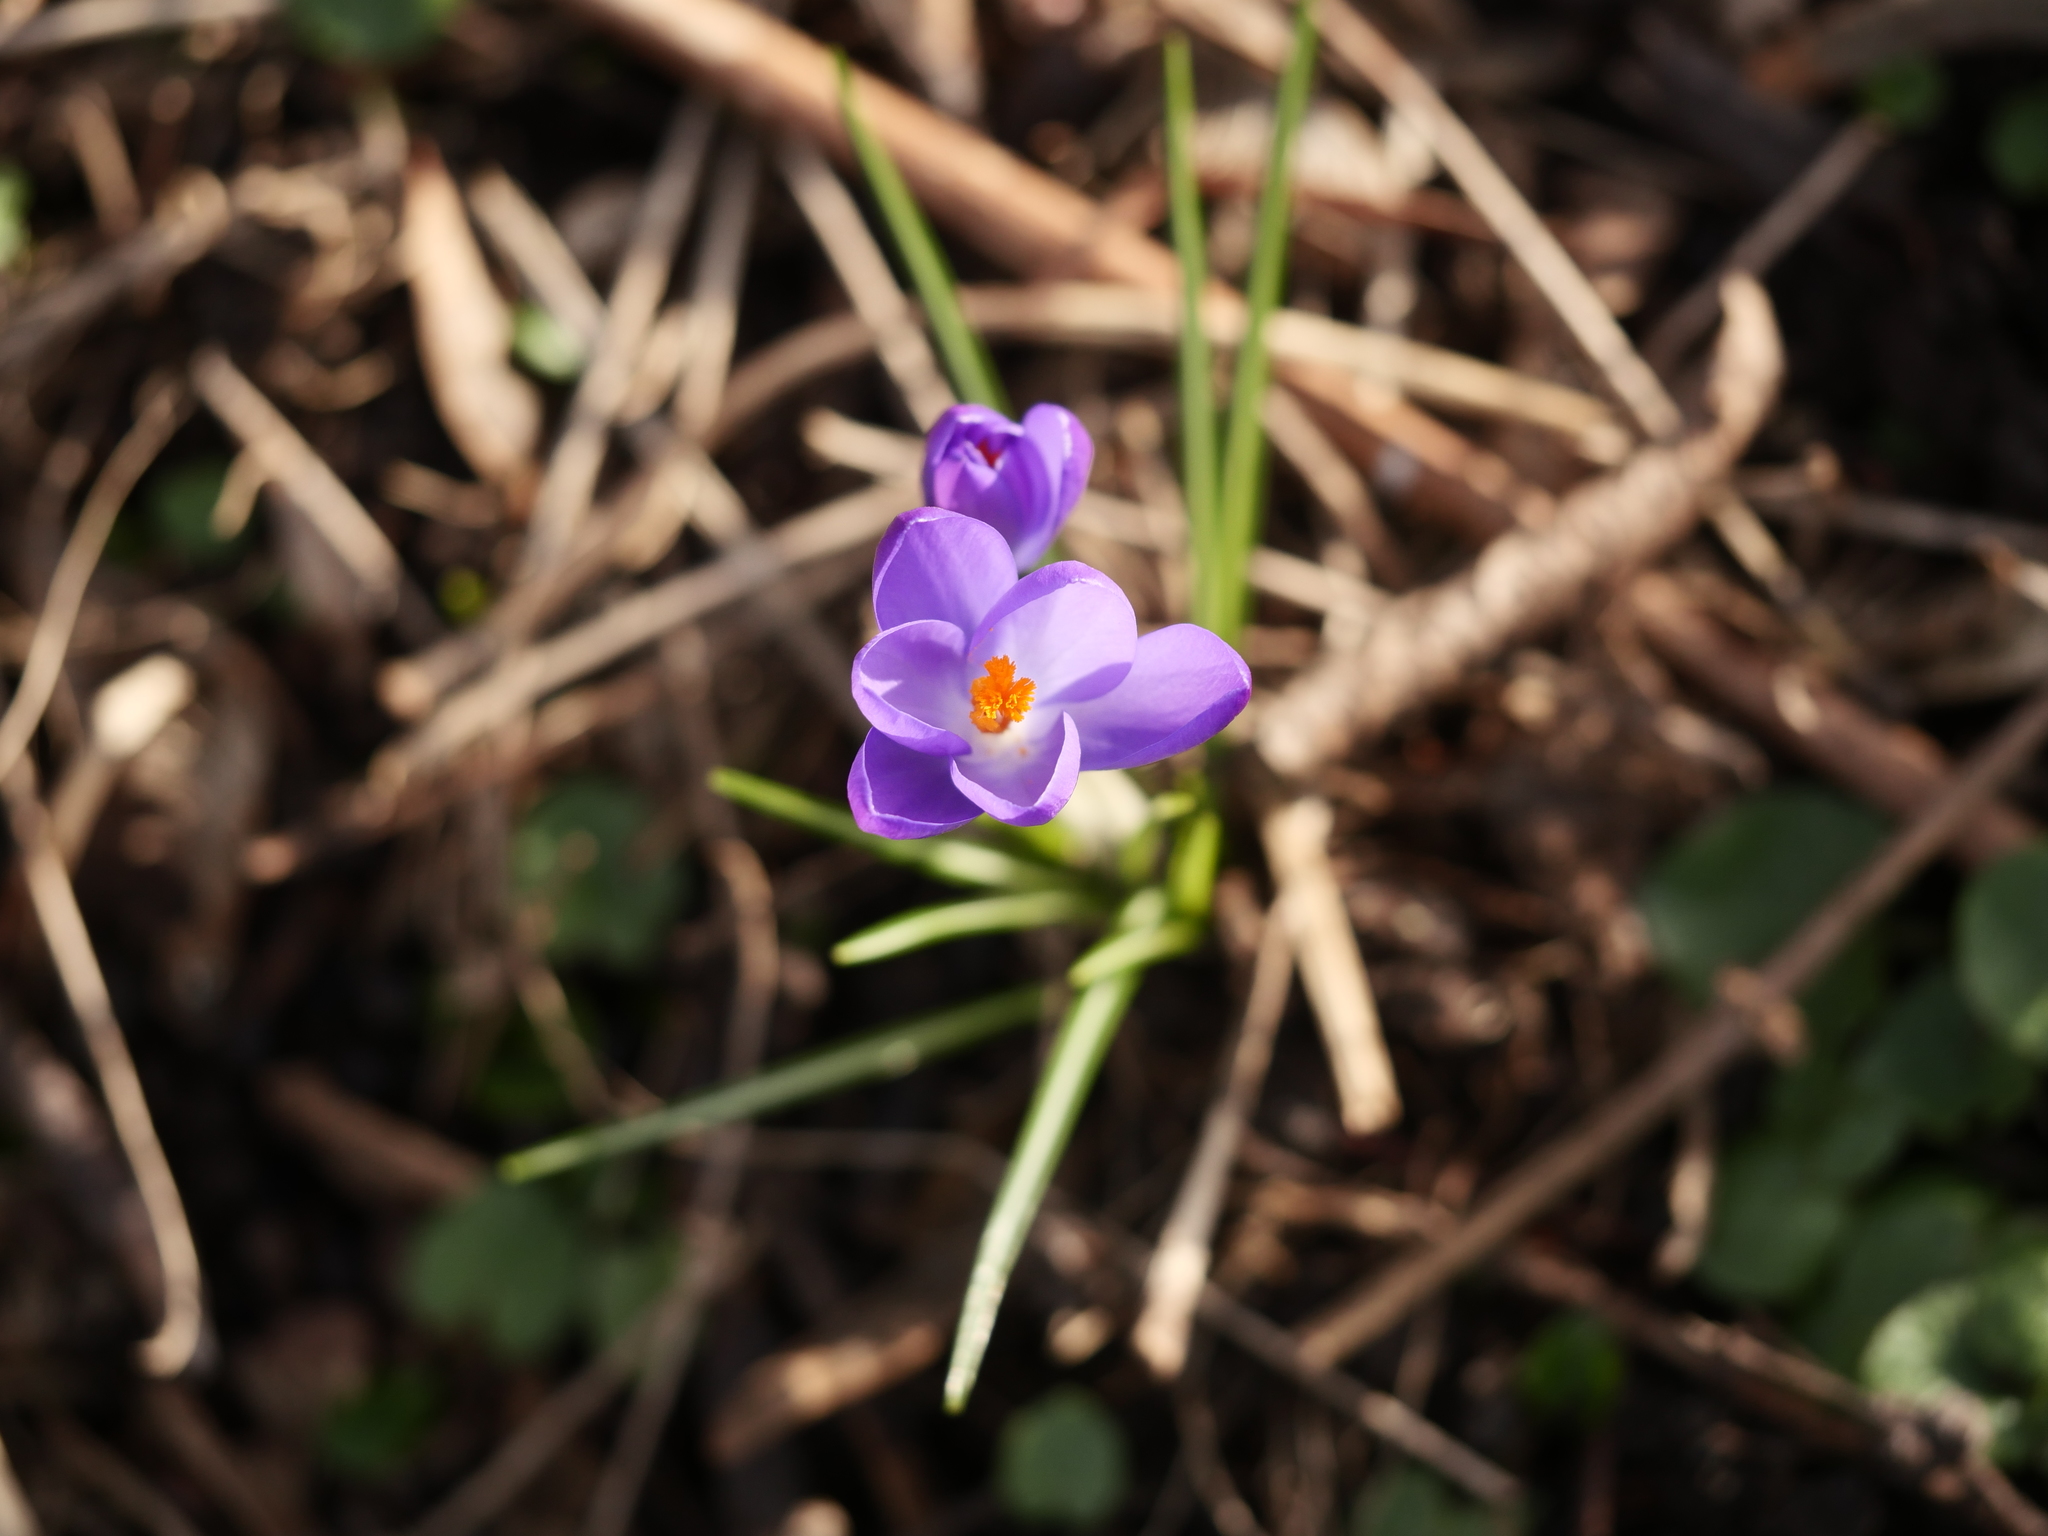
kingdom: Plantae
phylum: Tracheophyta
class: Liliopsida
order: Asparagales
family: Iridaceae
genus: Crocus
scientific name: Crocus tommasinianus
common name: Early crocus
